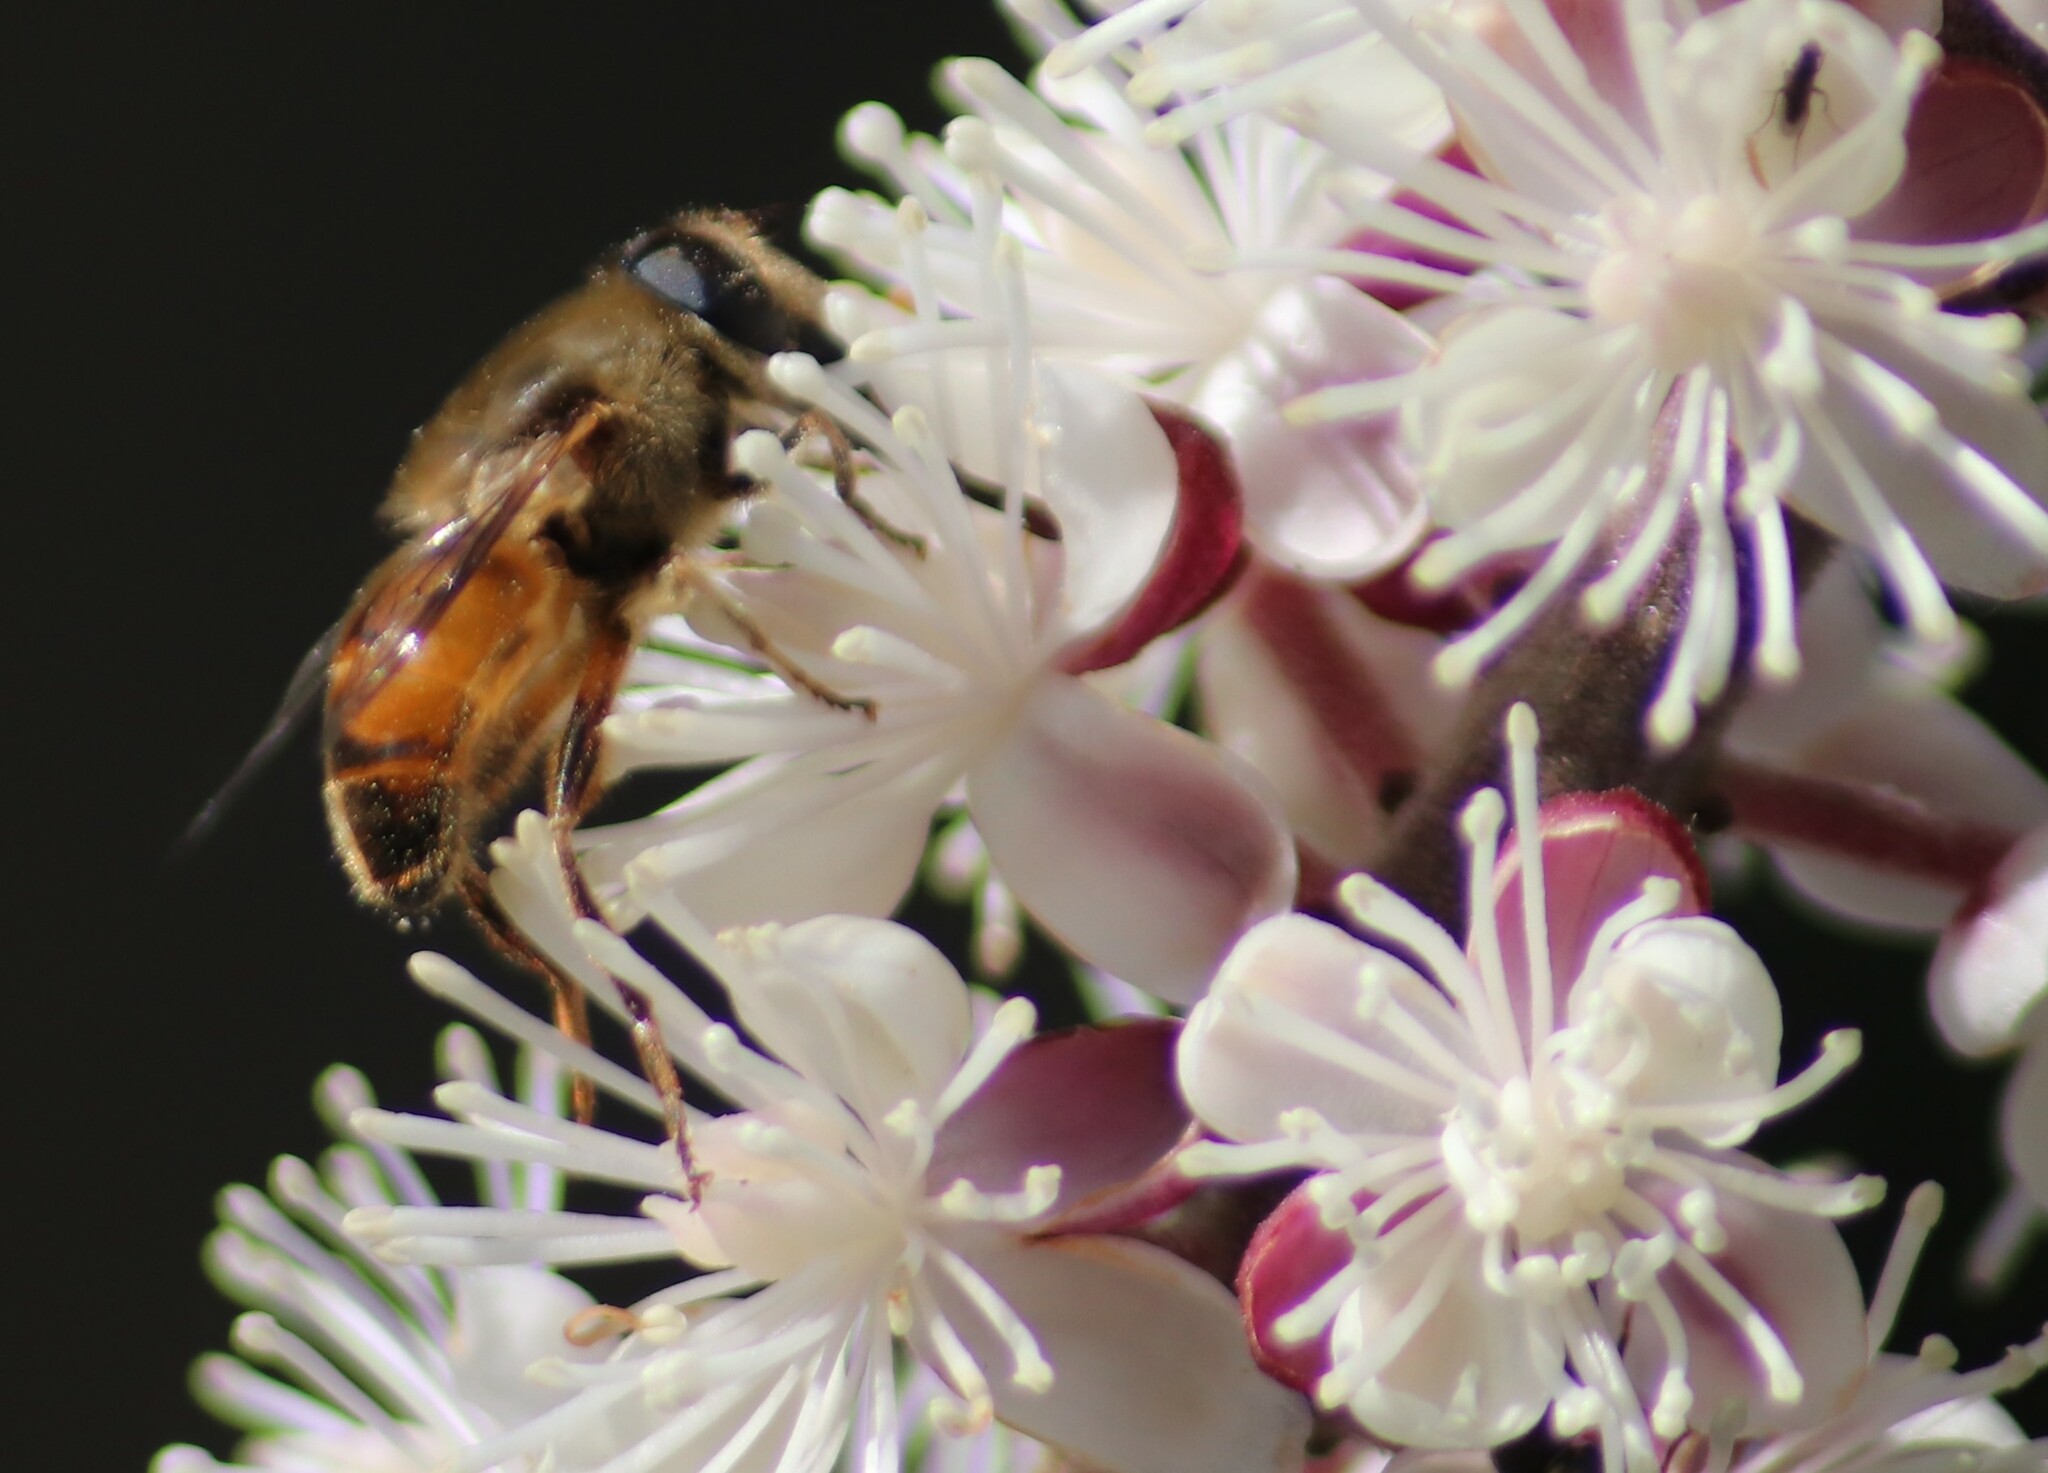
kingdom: Animalia
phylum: Arthropoda
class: Insecta
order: Diptera
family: Syrphidae
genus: Eristalis
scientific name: Eristalis tenax
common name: Drone fly
